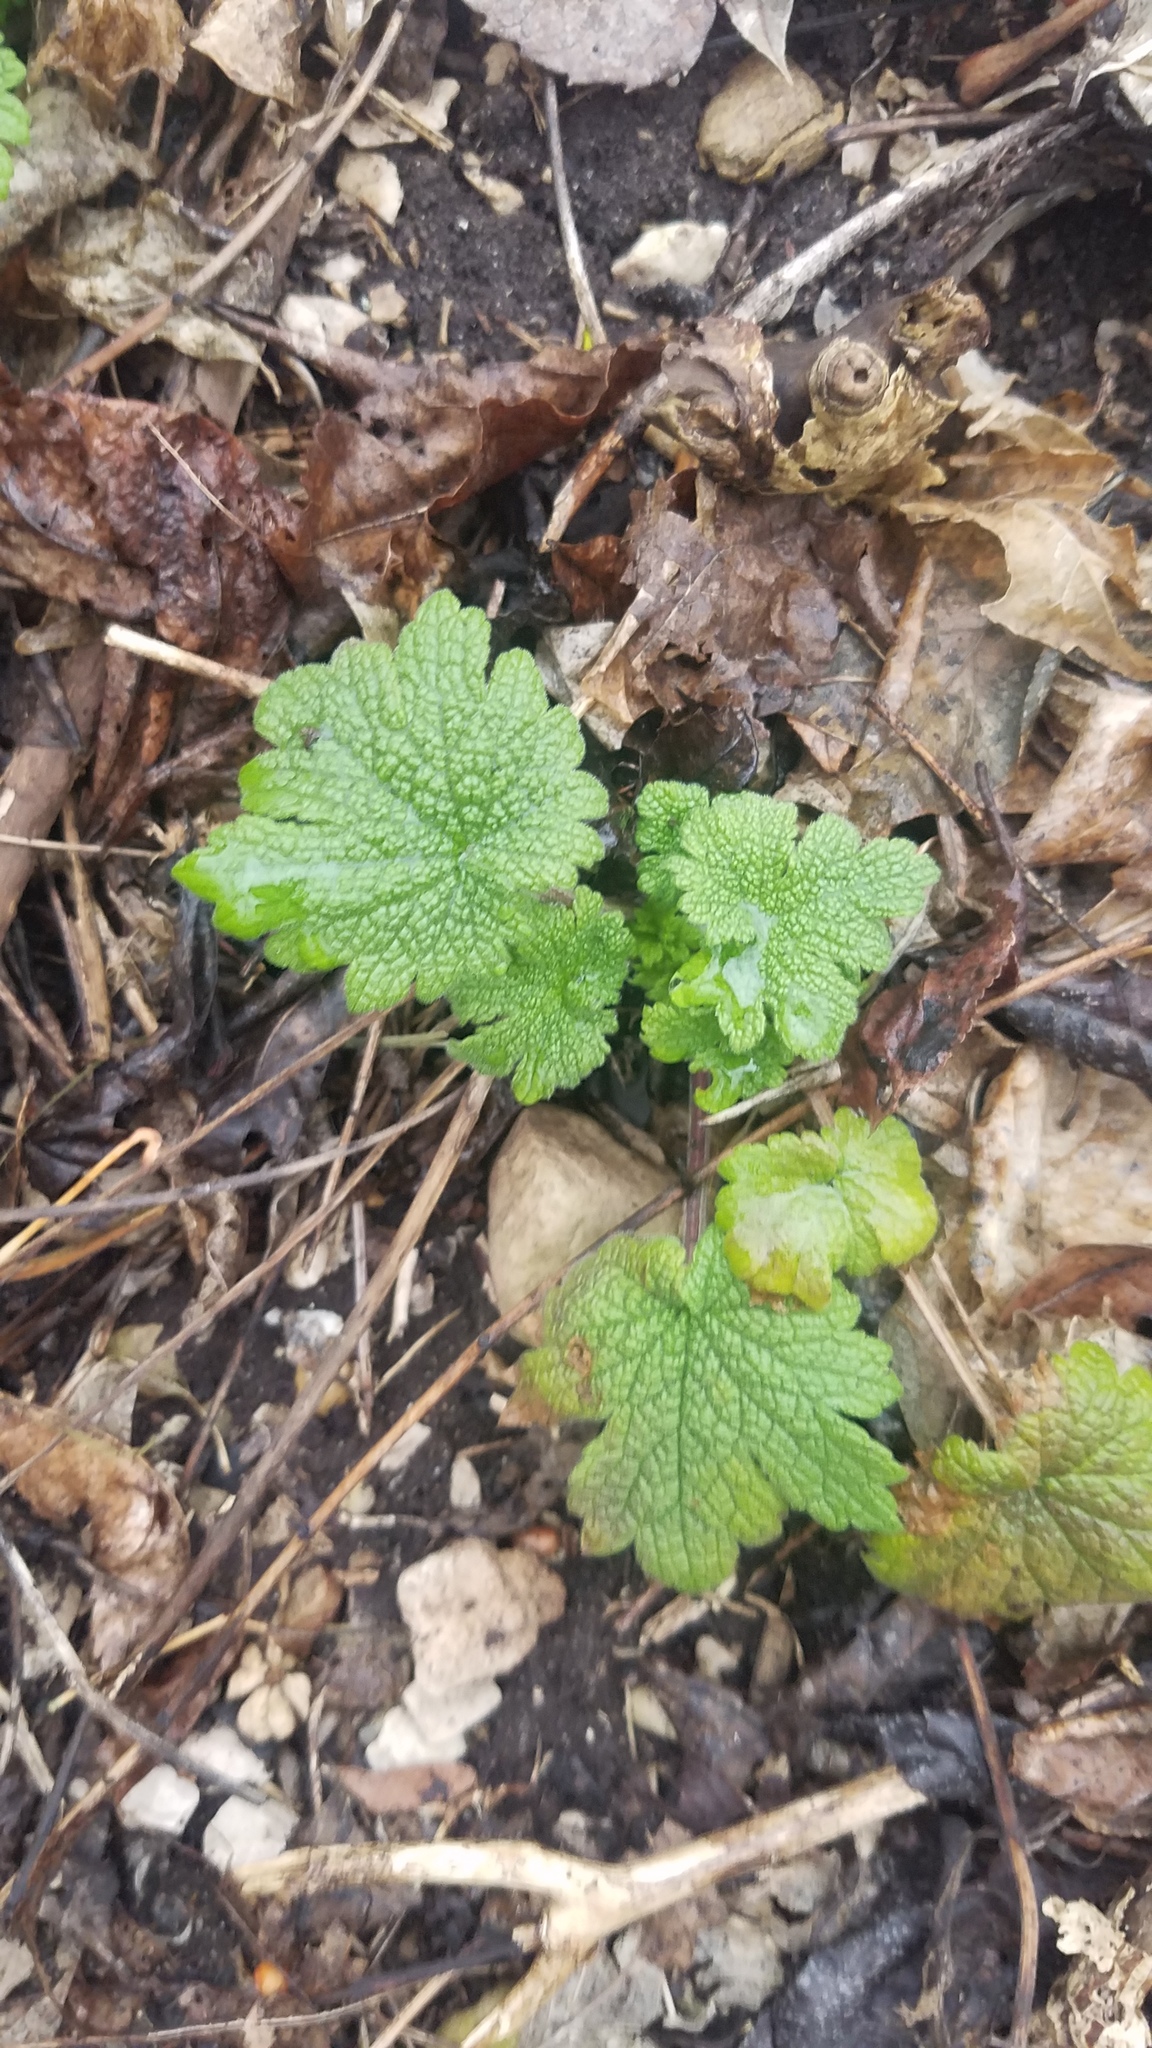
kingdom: Plantae
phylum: Tracheophyta
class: Magnoliopsida
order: Lamiales
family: Lamiaceae
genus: Leonurus
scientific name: Leonurus cardiaca
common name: Motherwort
